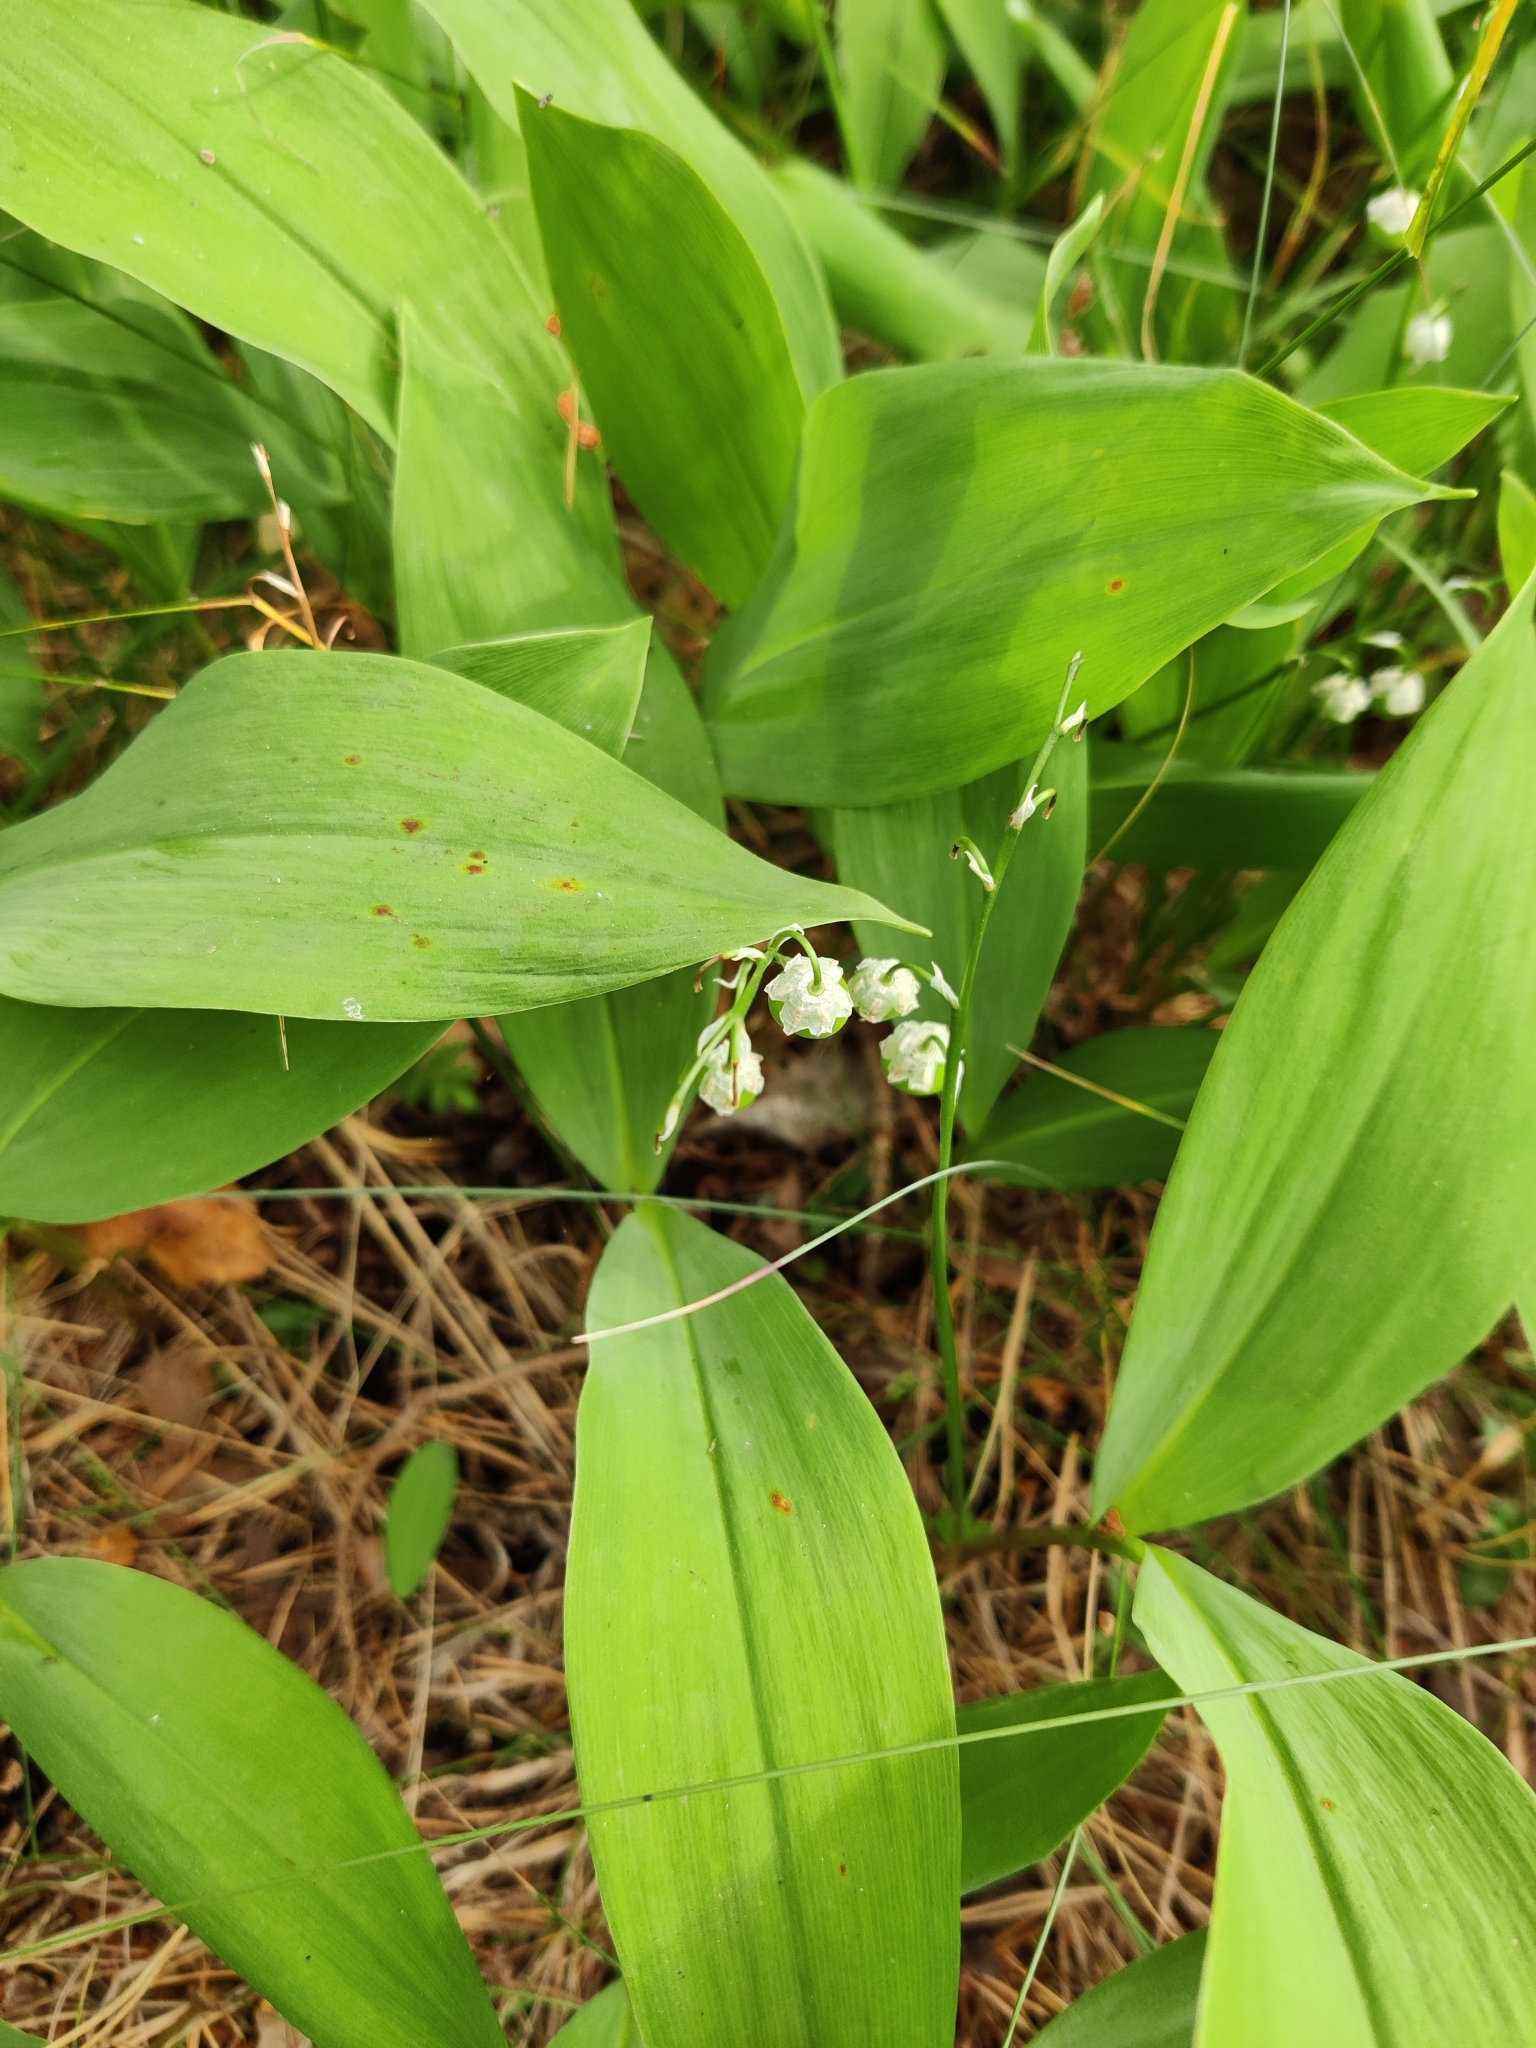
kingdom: Plantae
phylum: Tracheophyta
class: Liliopsida
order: Asparagales
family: Asparagaceae
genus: Convallaria
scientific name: Convallaria majalis
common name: Lily-of-the-valley
